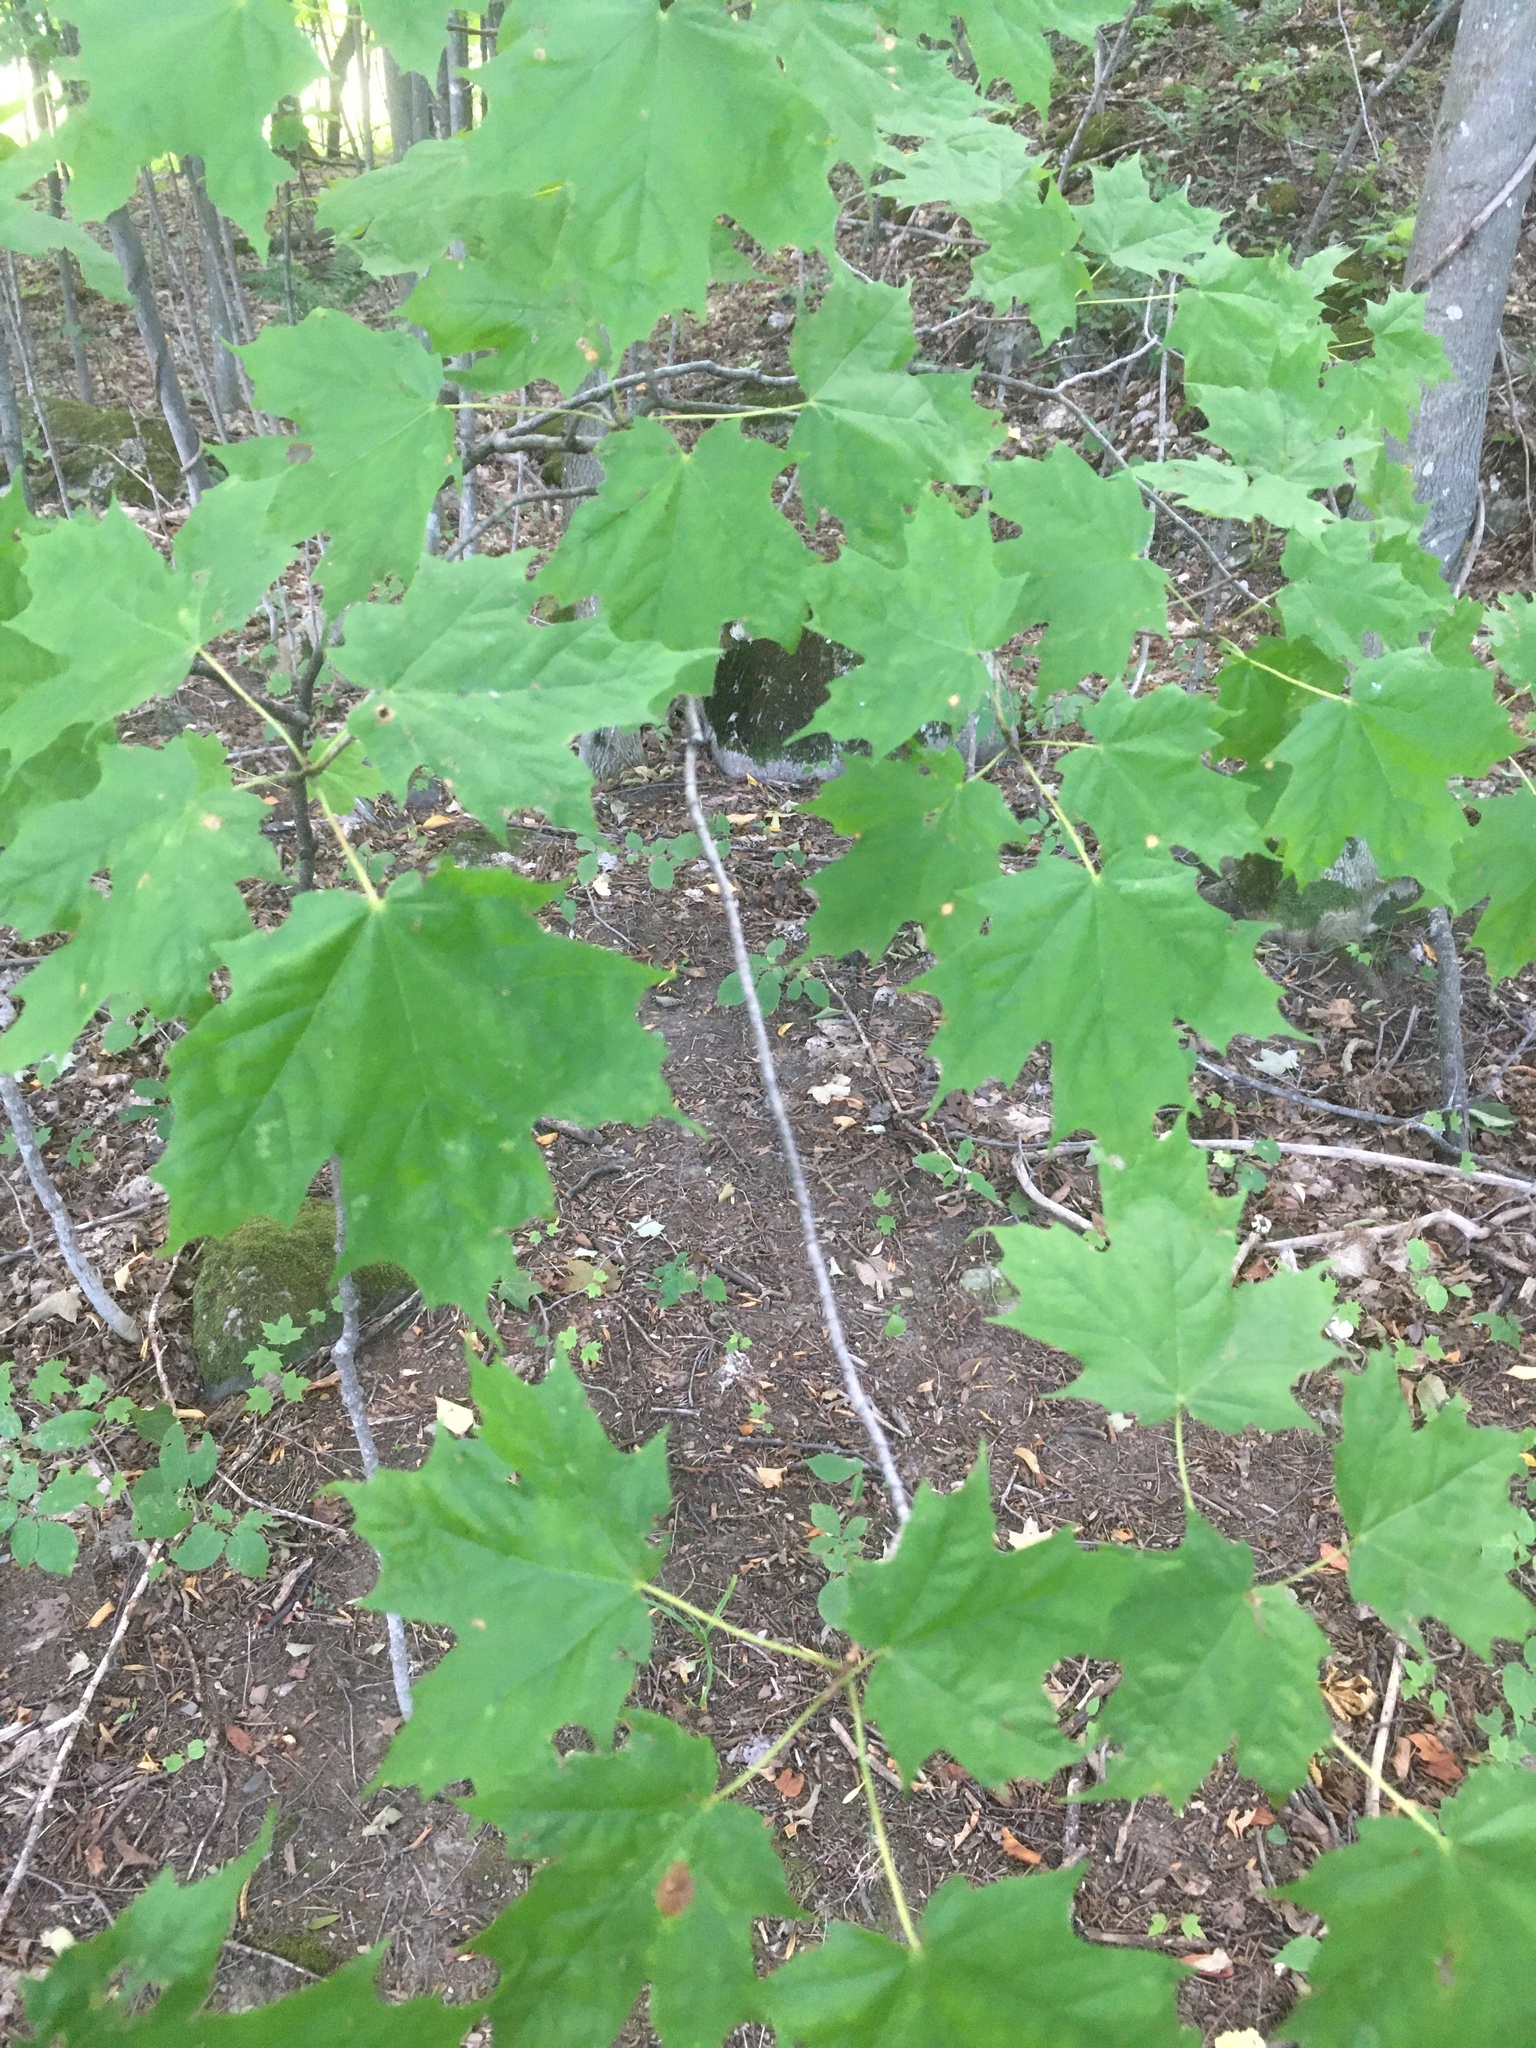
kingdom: Plantae
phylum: Tracheophyta
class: Magnoliopsida
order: Sapindales
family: Sapindaceae
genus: Acer
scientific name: Acer saccharum
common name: Sugar maple
